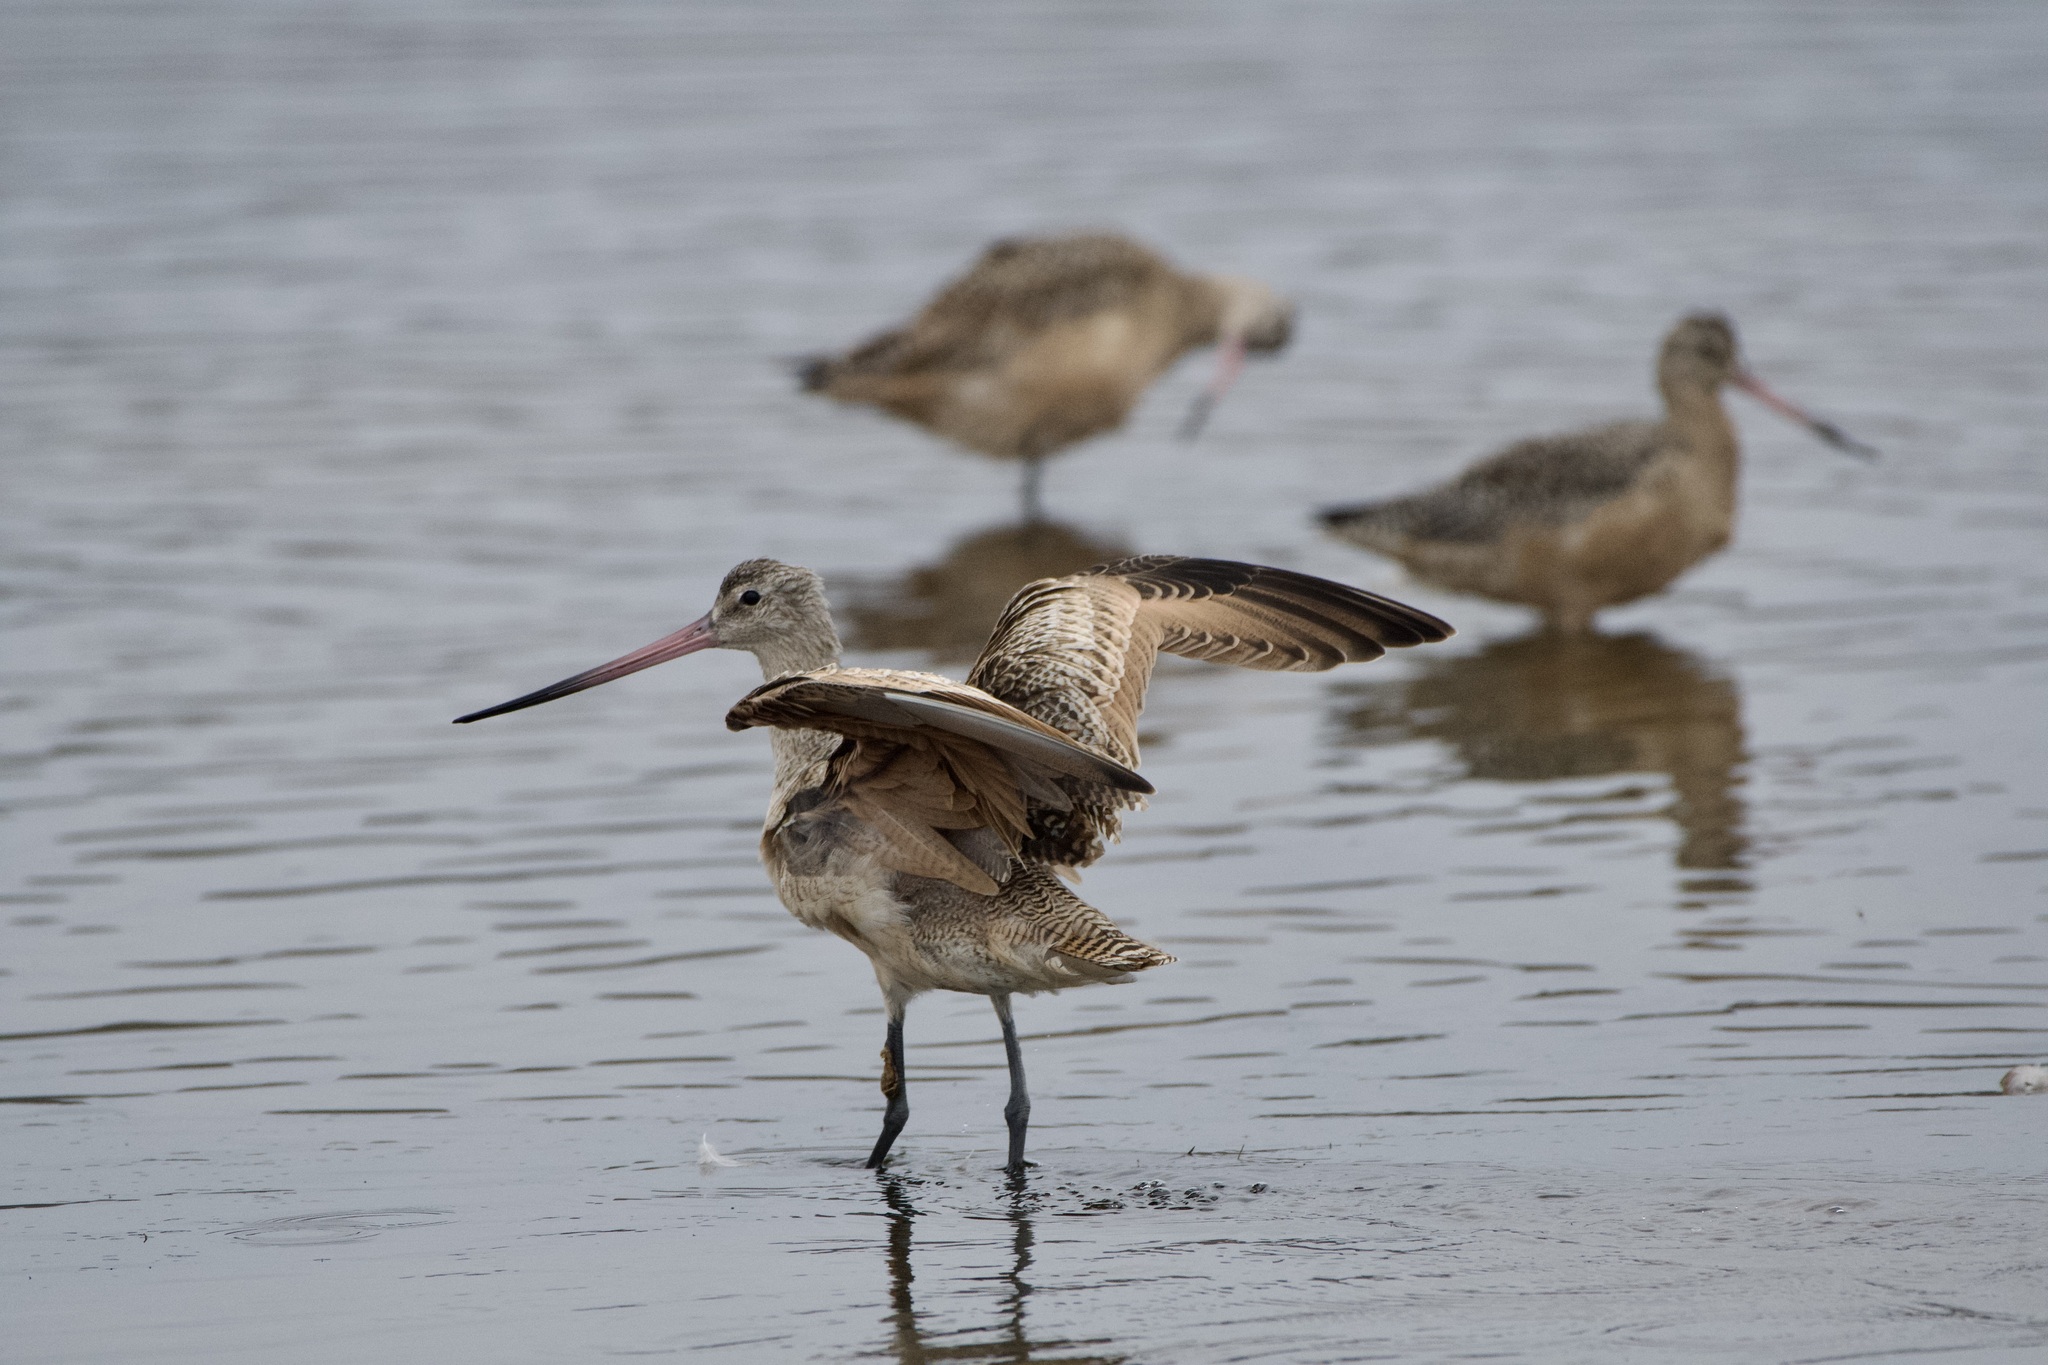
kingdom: Animalia
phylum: Chordata
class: Aves
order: Charadriiformes
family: Scolopacidae
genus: Limosa
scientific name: Limosa fedoa
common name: Marbled godwit
